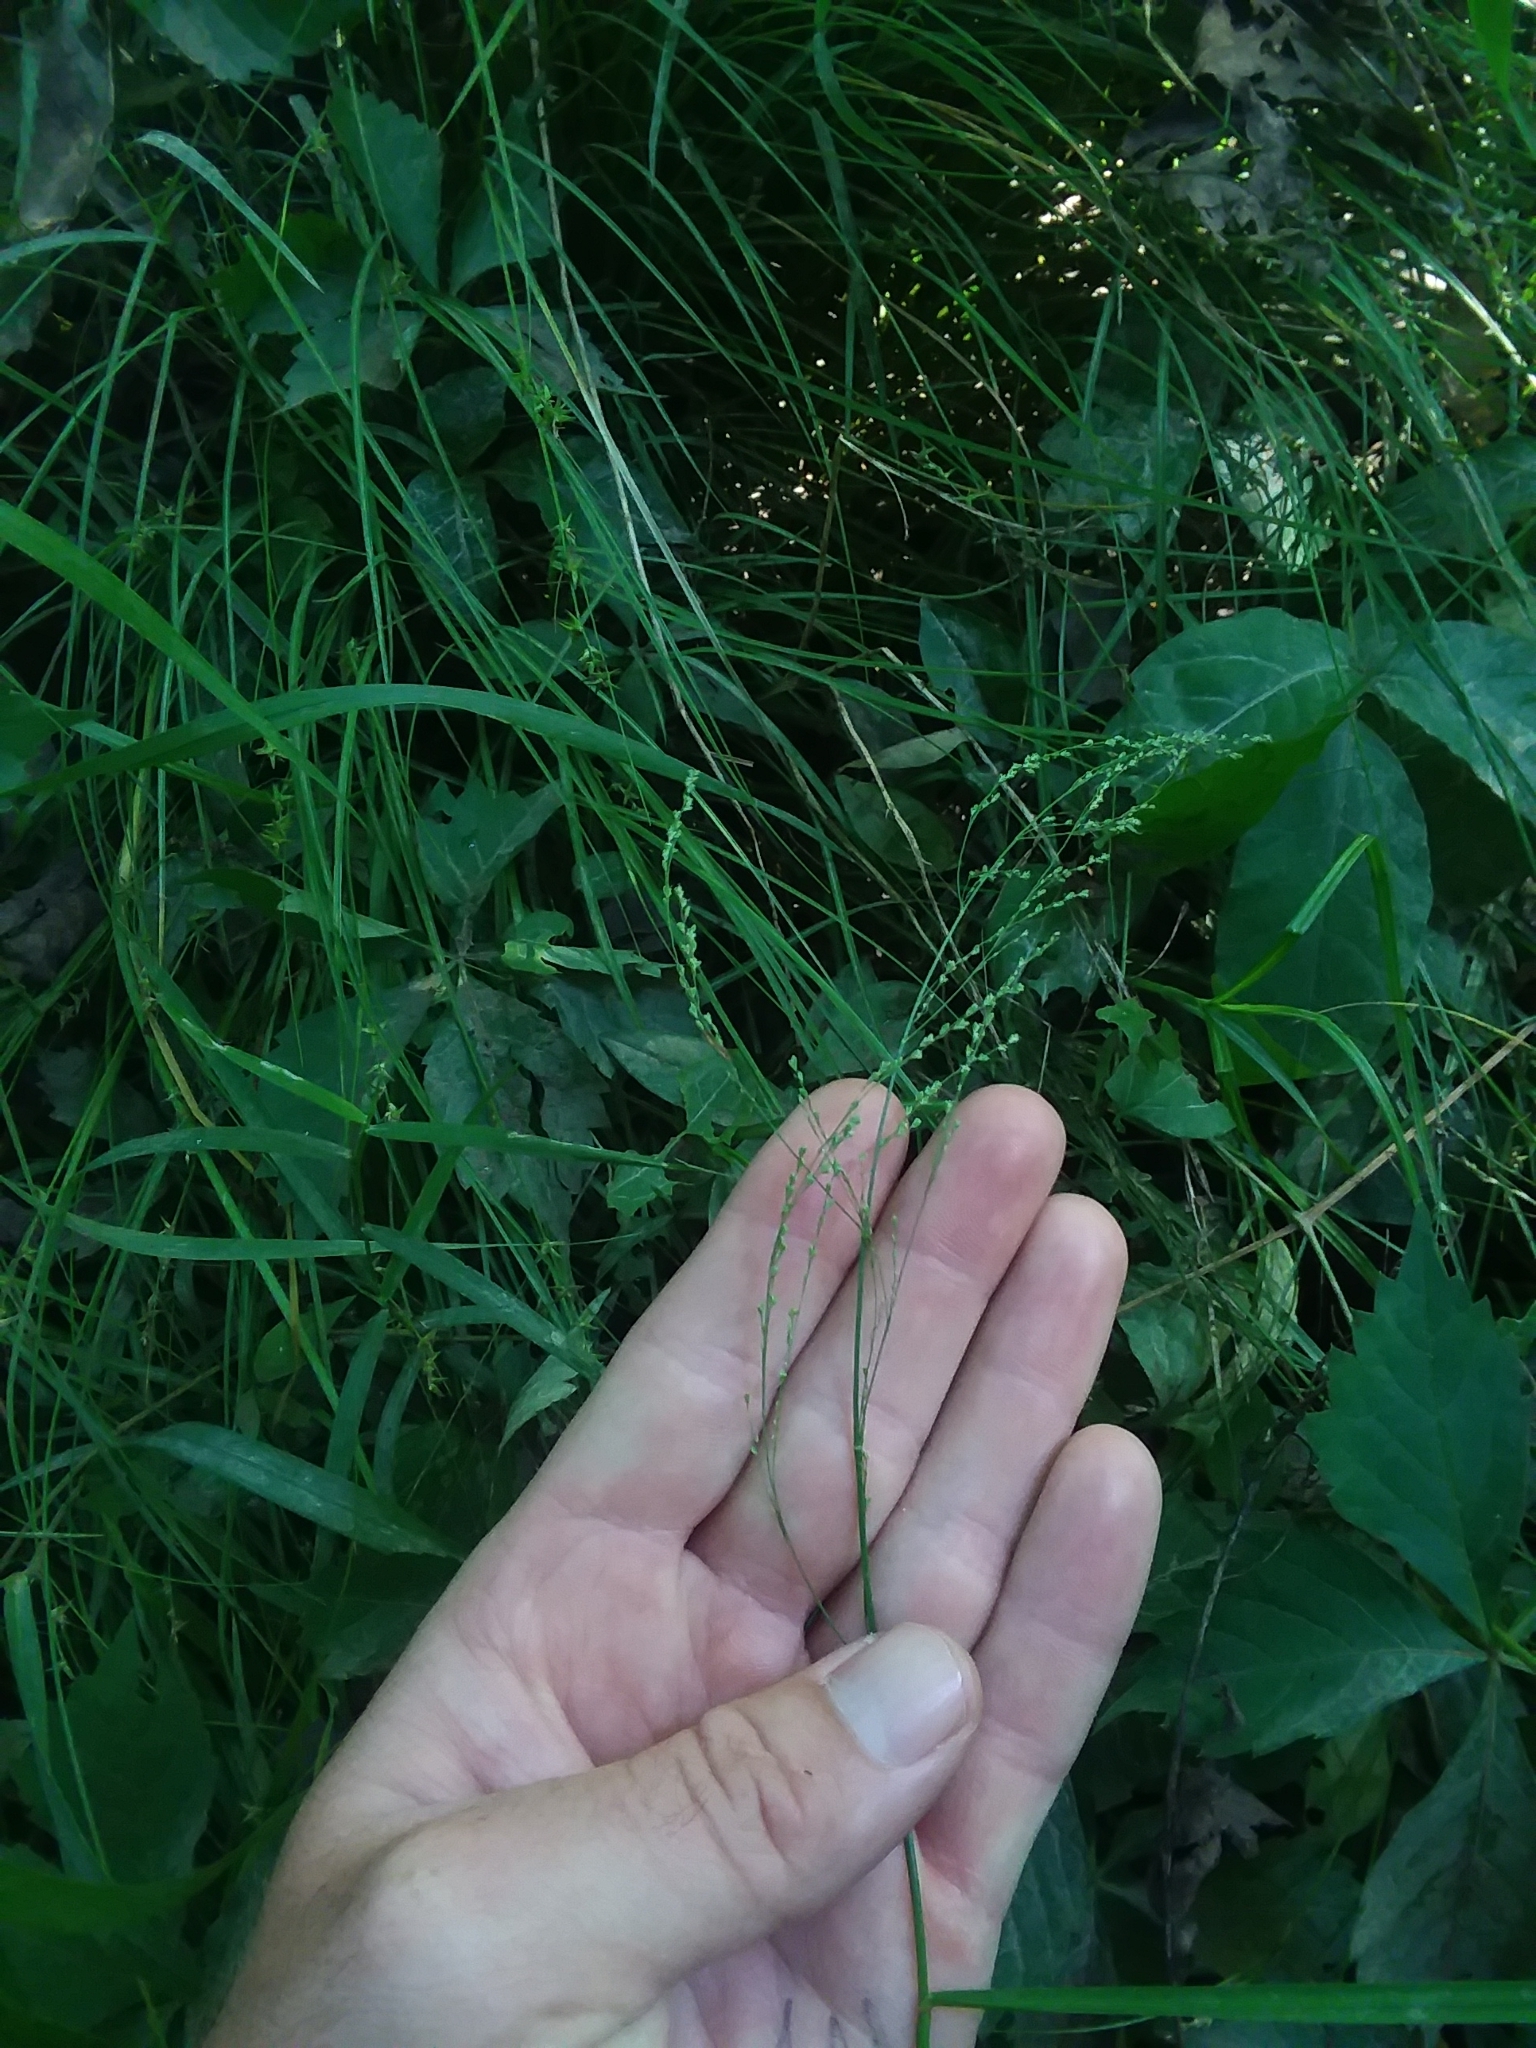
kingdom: Plantae
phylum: Tracheophyta
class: Liliopsida
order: Poales
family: Poaceae
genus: Glyceria
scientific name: Glyceria striata
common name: Fowl manna grass
